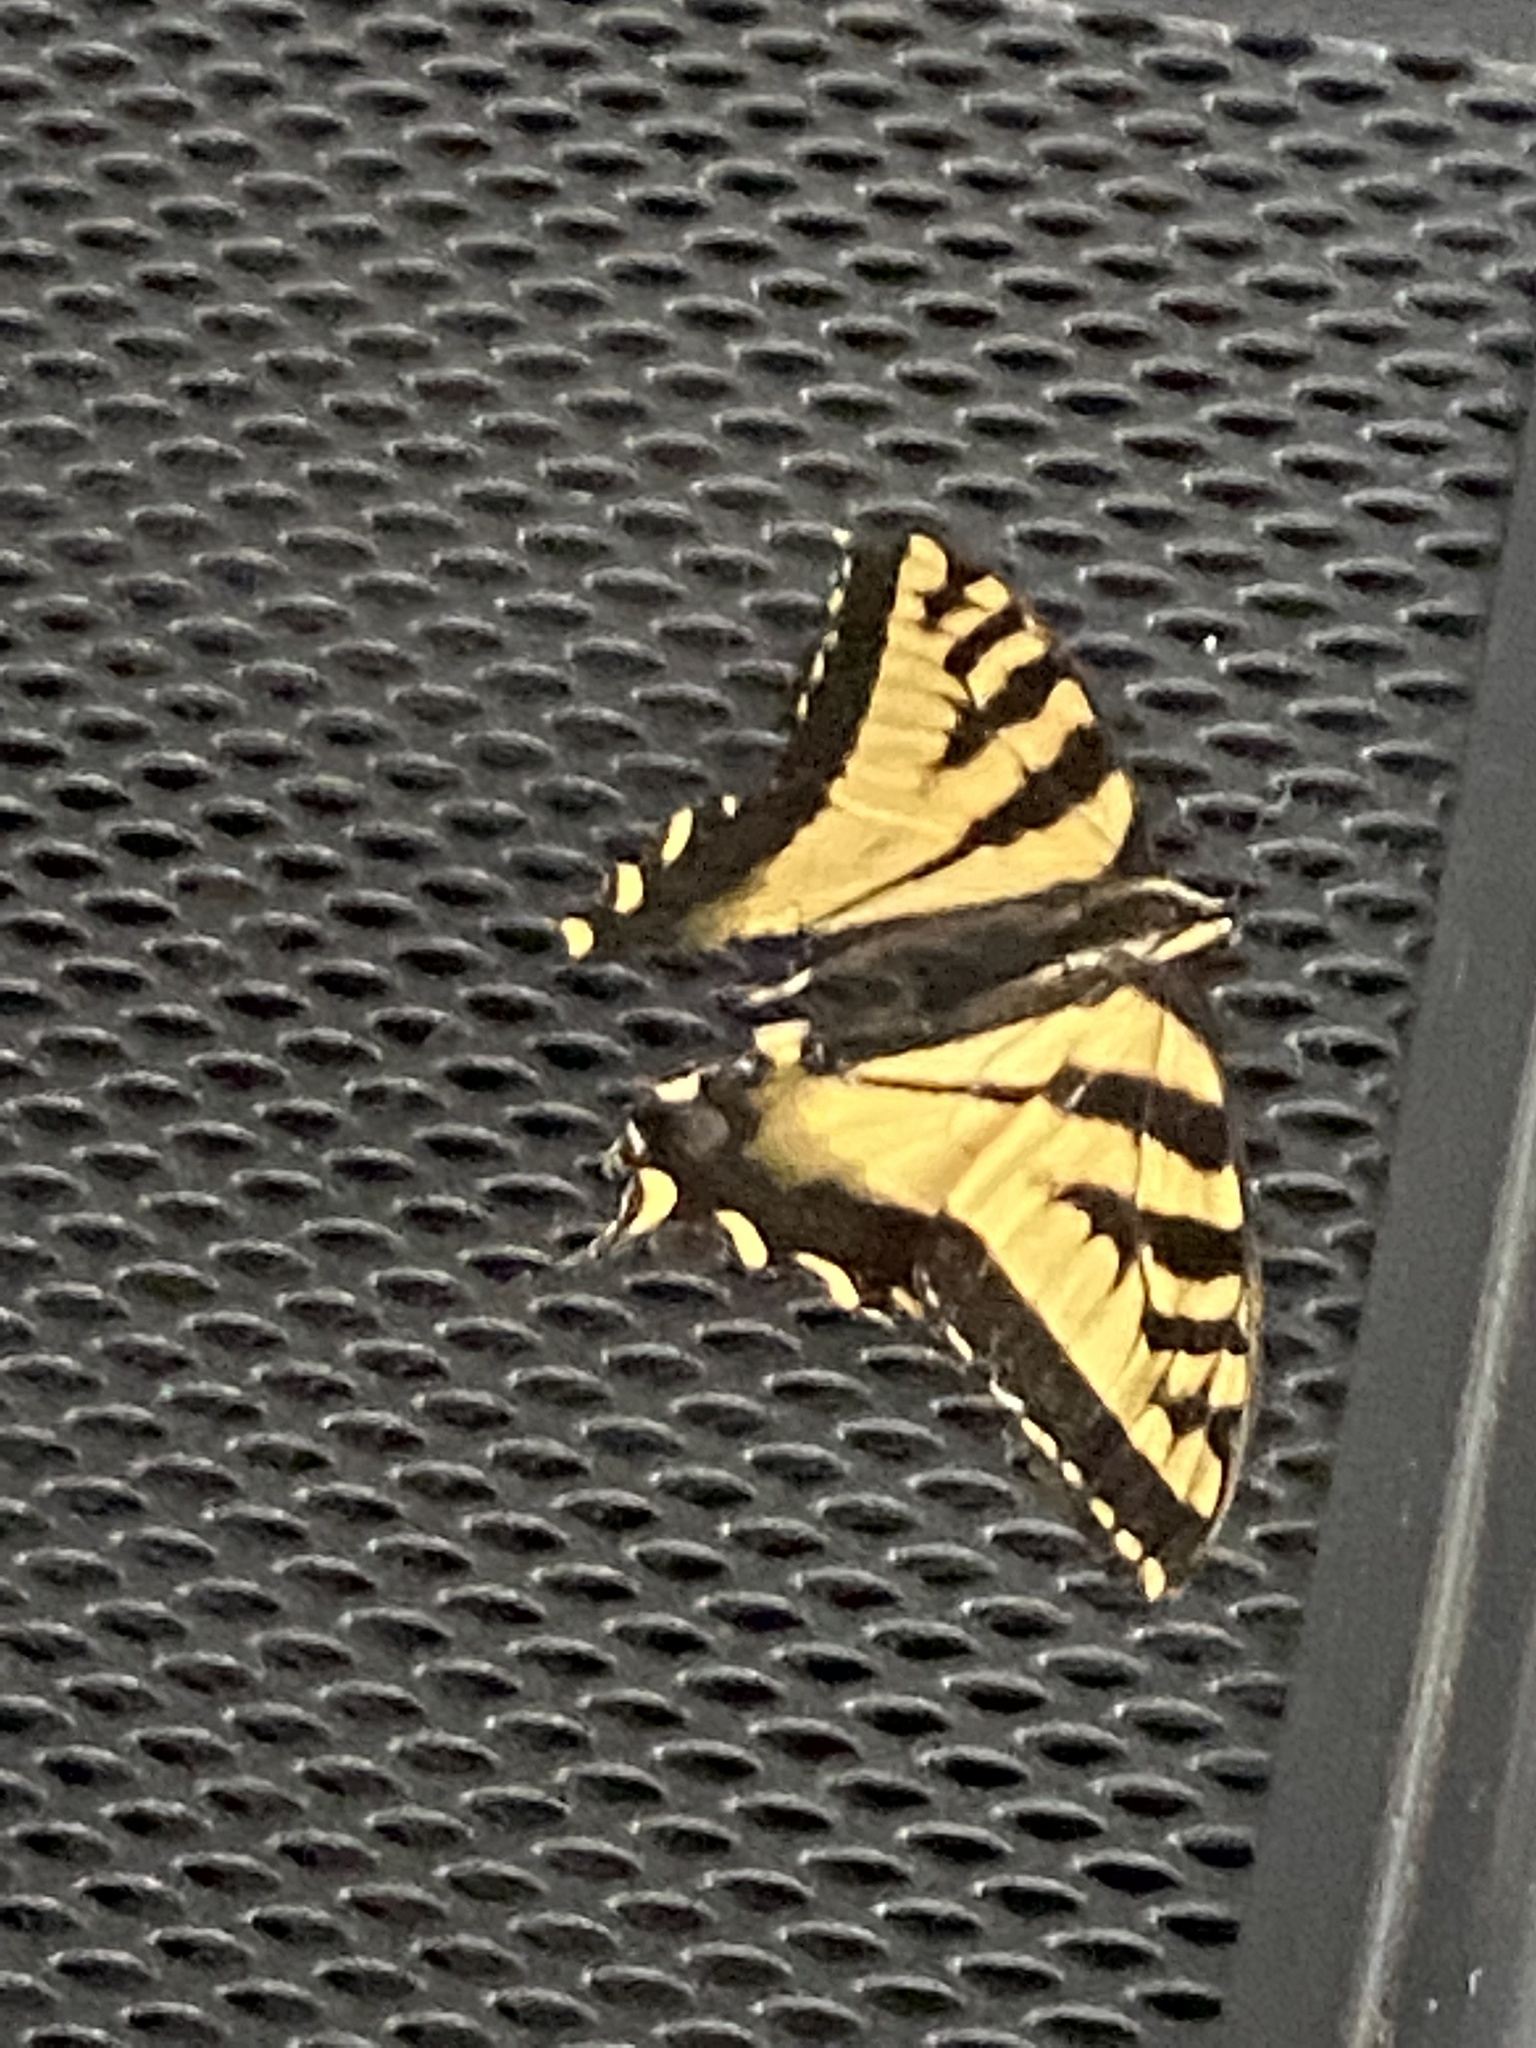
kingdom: Animalia
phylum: Arthropoda
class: Insecta
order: Lepidoptera
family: Papilionidae
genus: Papilio
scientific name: Papilio rutulus
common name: Western tiger swallowtail
